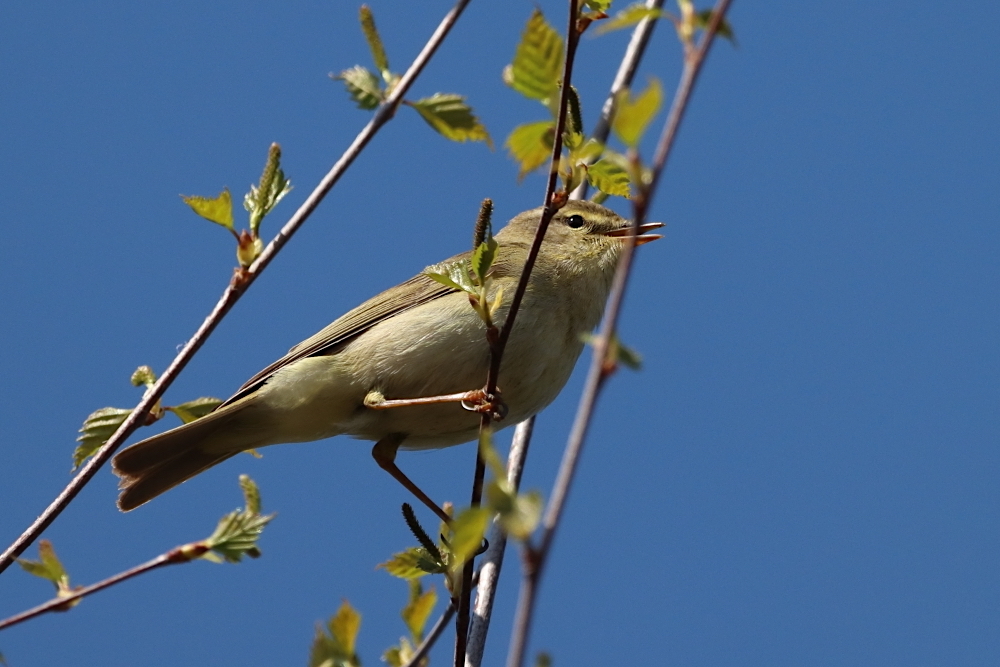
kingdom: Animalia
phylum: Chordata
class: Aves
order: Passeriformes
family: Phylloscopidae
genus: Phylloscopus
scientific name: Phylloscopus trochilus
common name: Willow warbler
